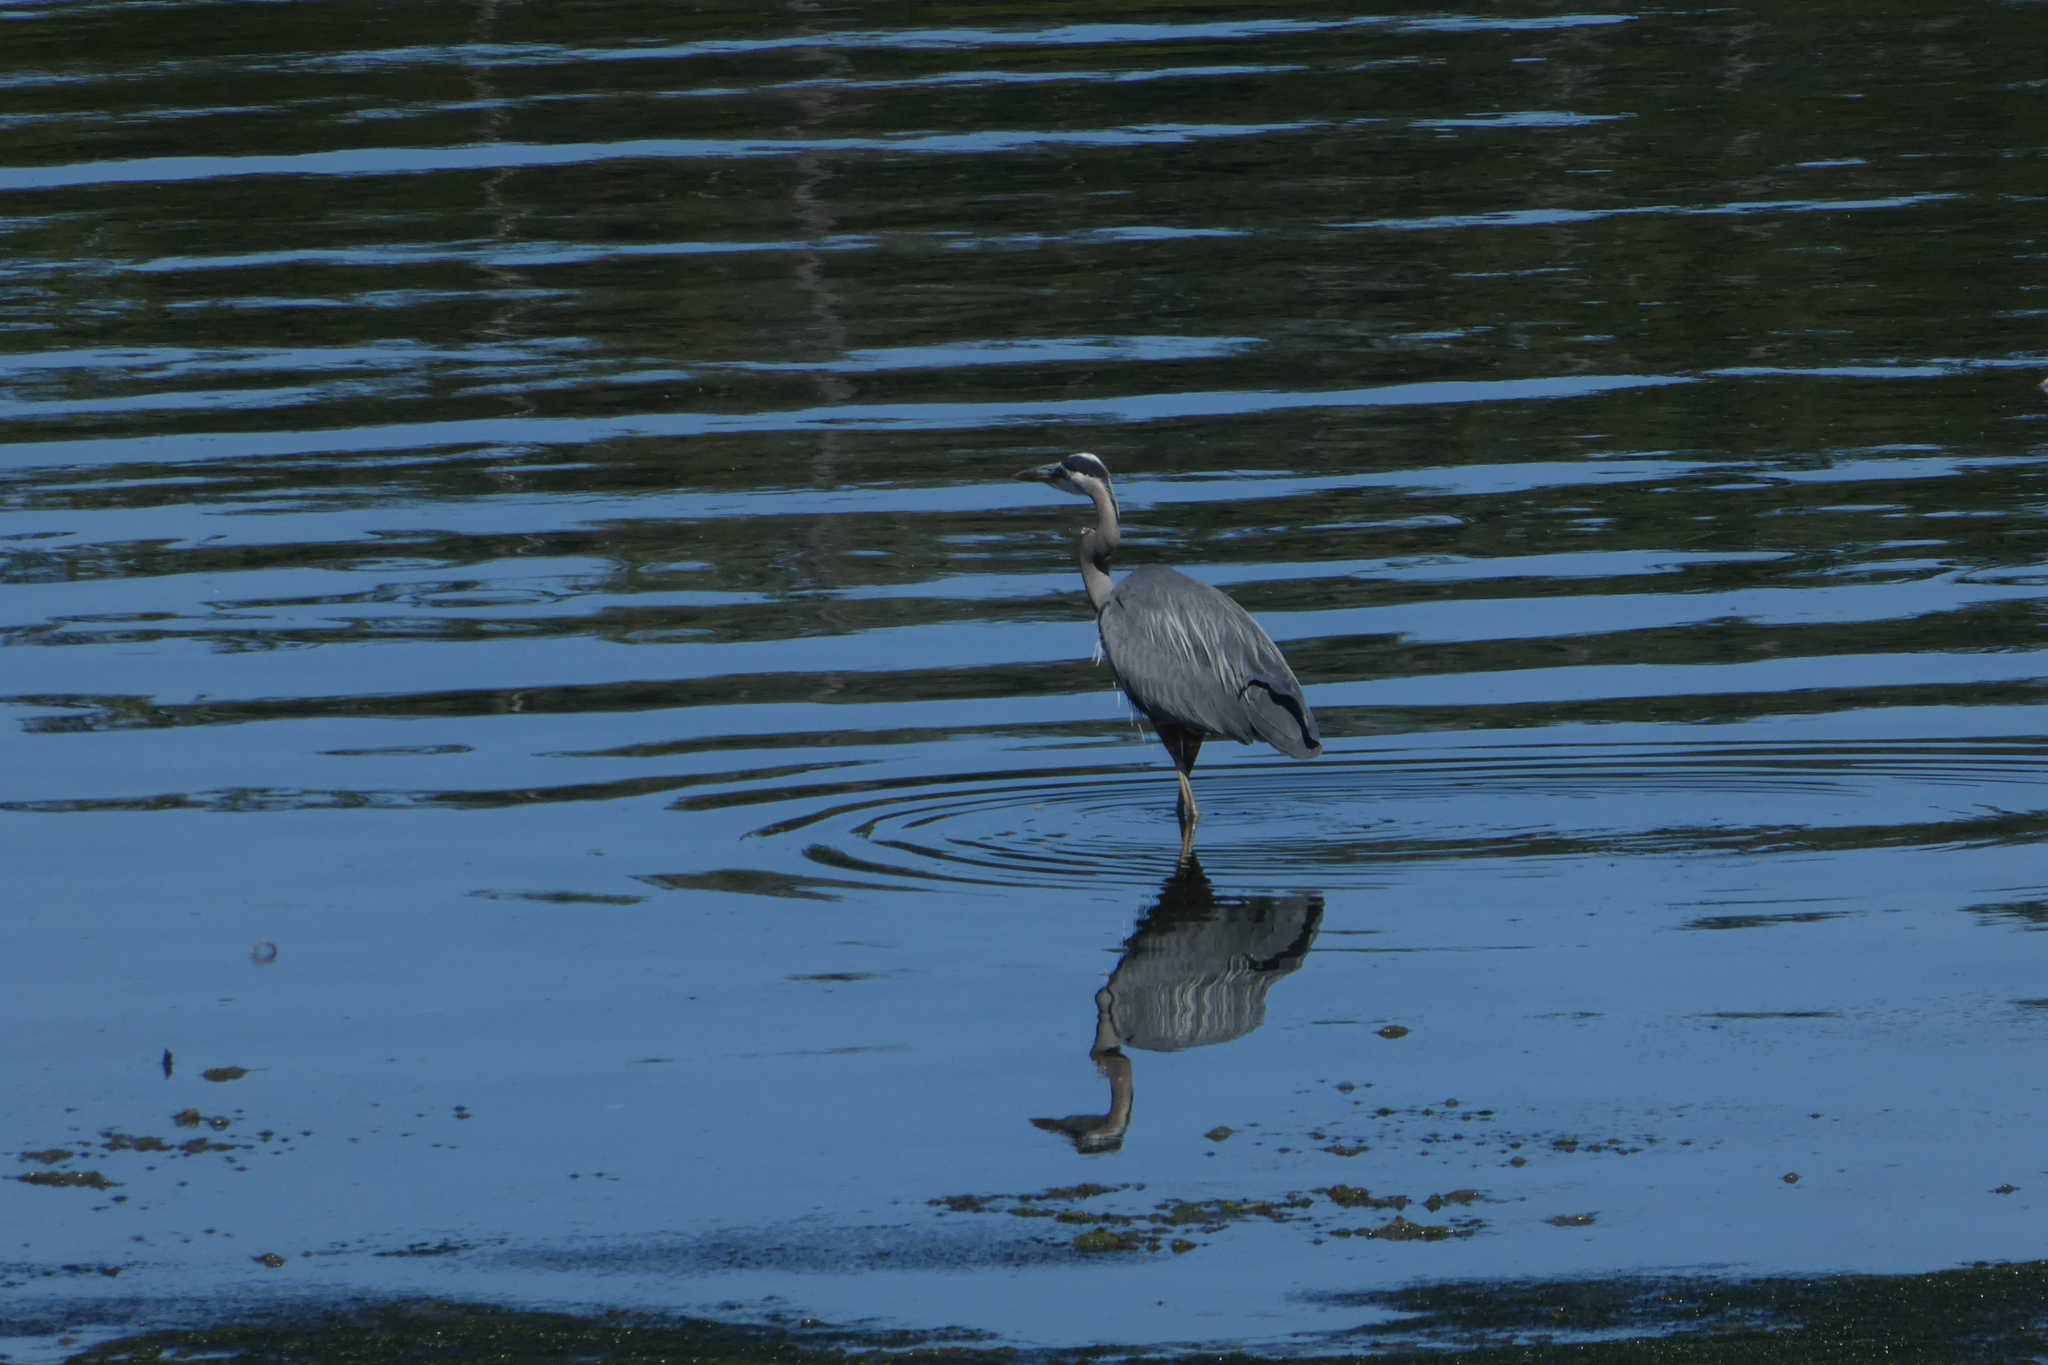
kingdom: Animalia
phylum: Chordata
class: Aves
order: Pelecaniformes
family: Ardeidae
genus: Ardea
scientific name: Ardea herodias
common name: Great blue heron
